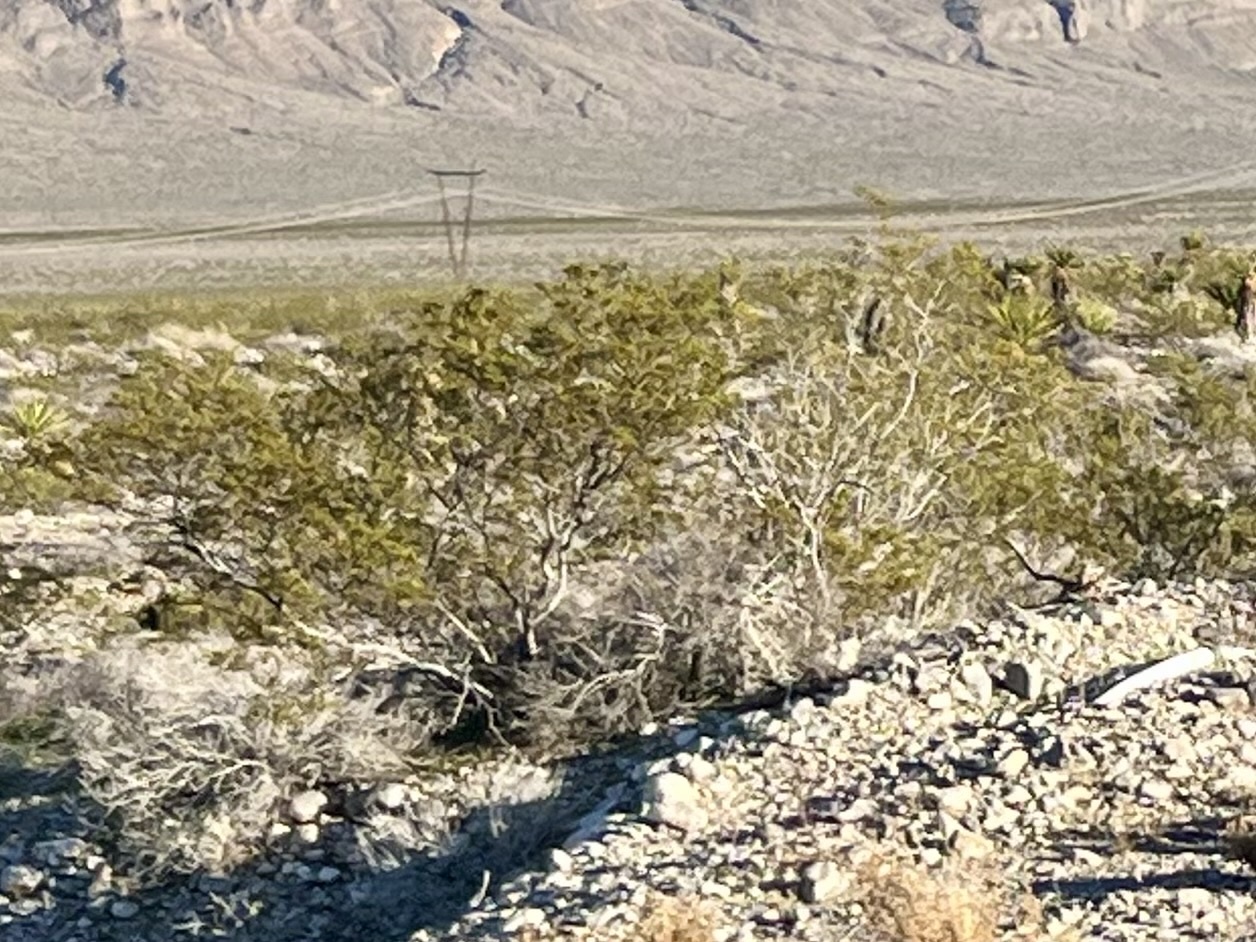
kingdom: Plantae
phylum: Tracheophyta
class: Magnoliopsida
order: Zygophyllales
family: Zygophyllaceae
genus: Larrea
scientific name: Larrea tridentata
